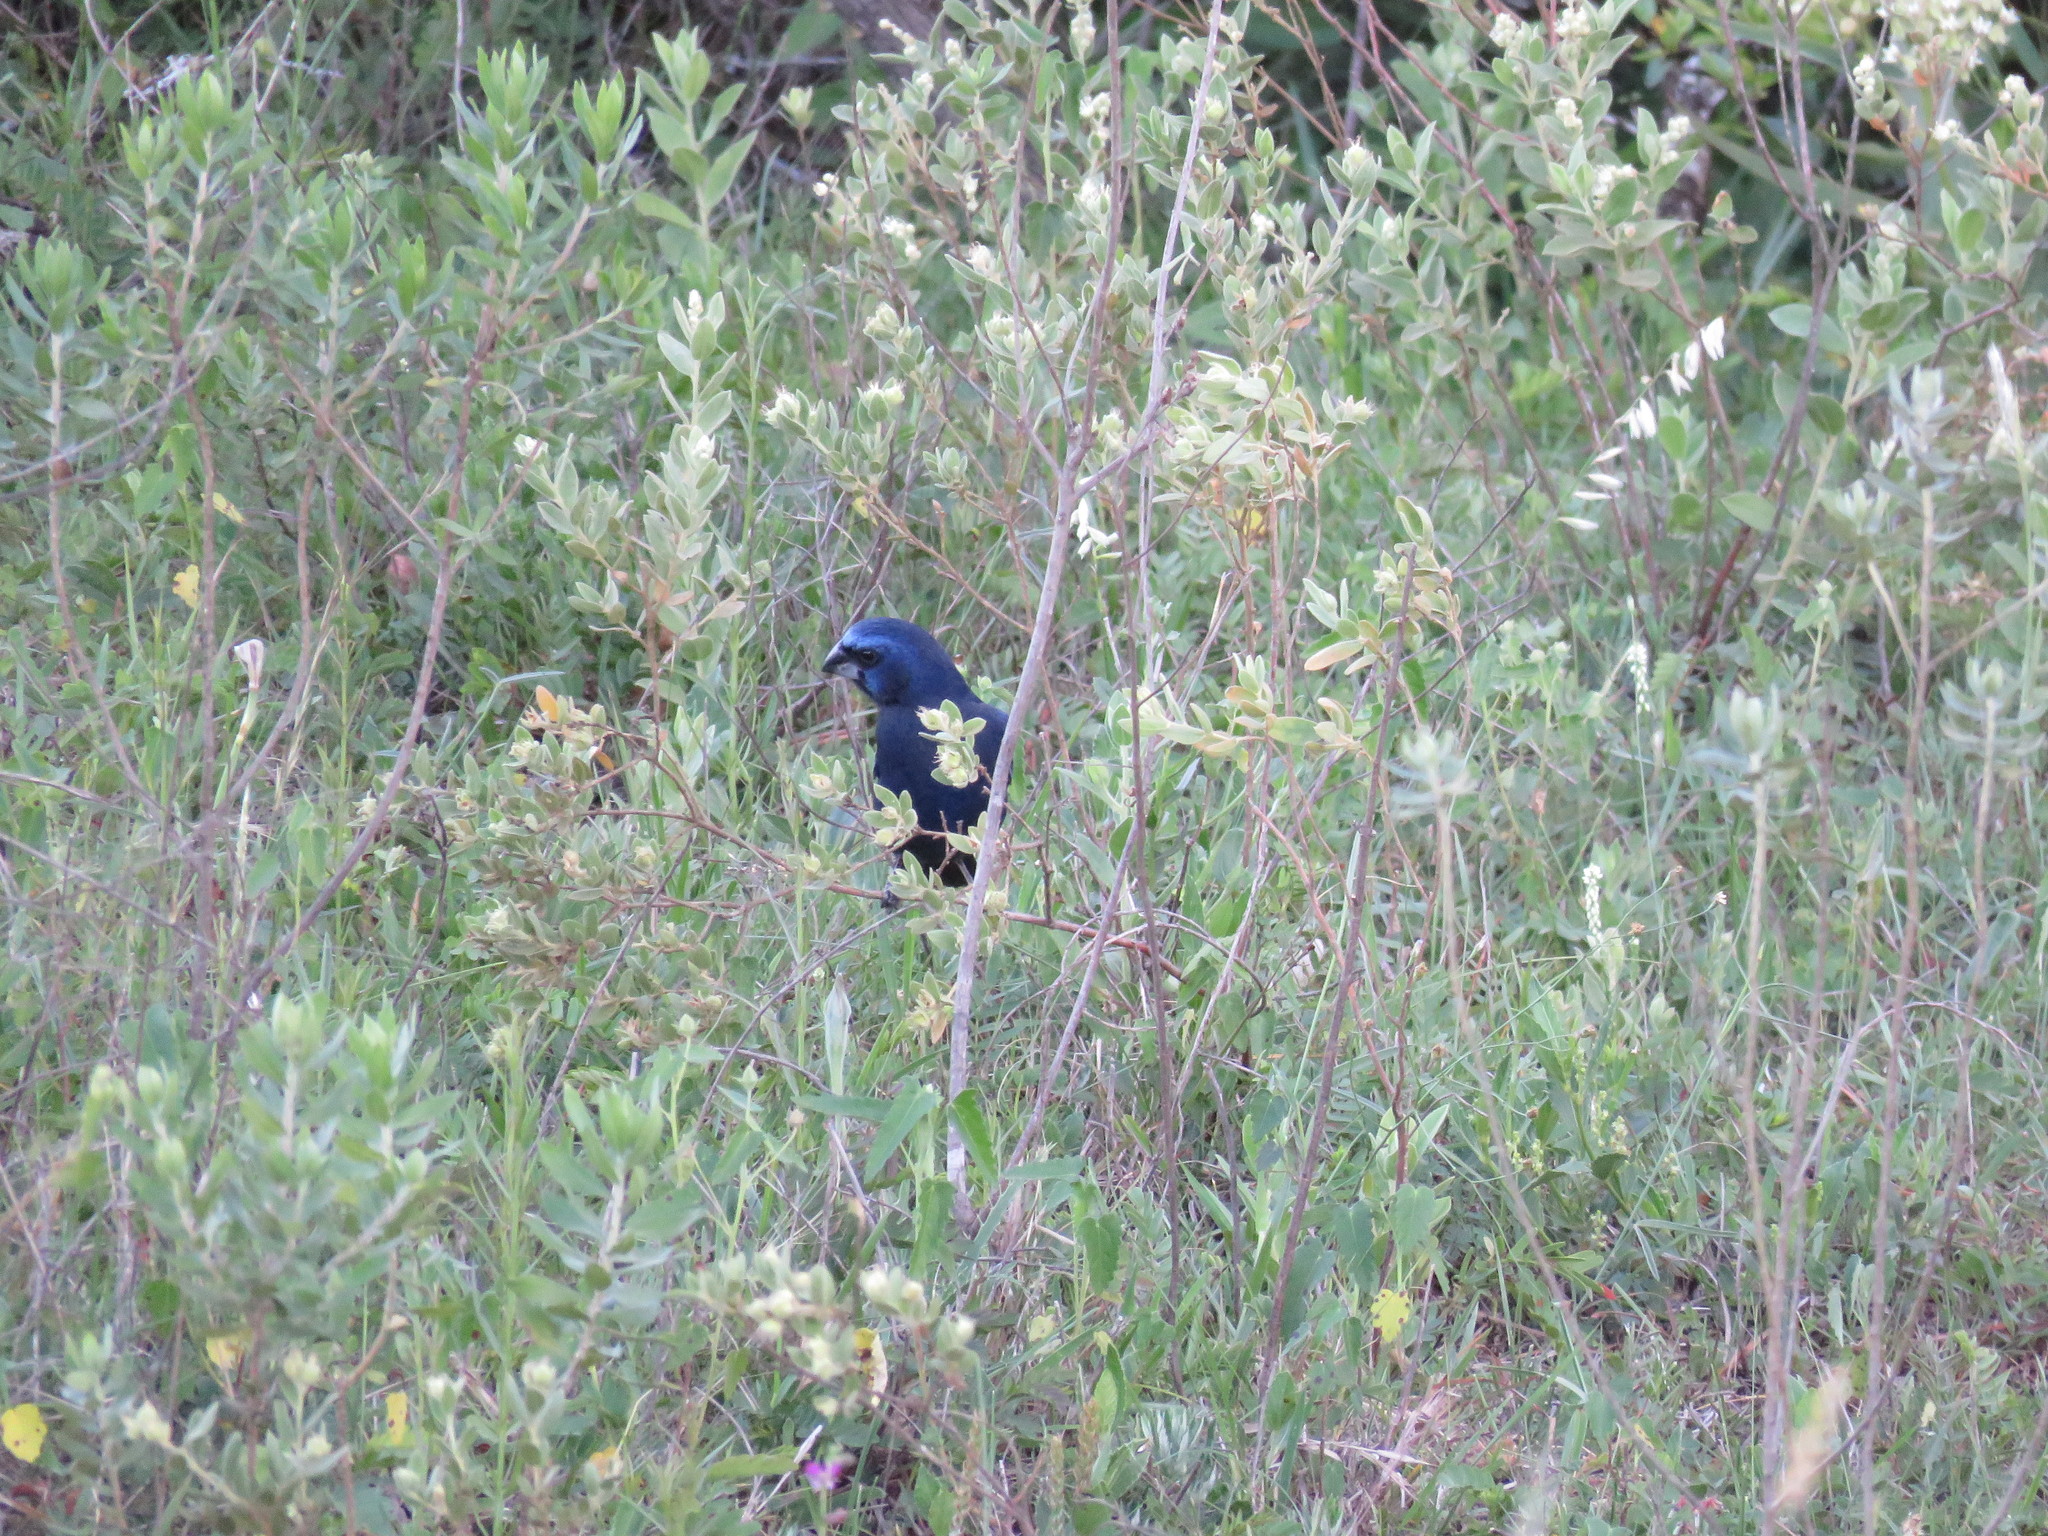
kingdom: Animalia
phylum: Chordata
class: Aves
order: Passeriformes
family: Cardinalidae
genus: Cyanoloxia
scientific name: Cyanoloxia brissonii
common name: Ultramarine grosbeak
